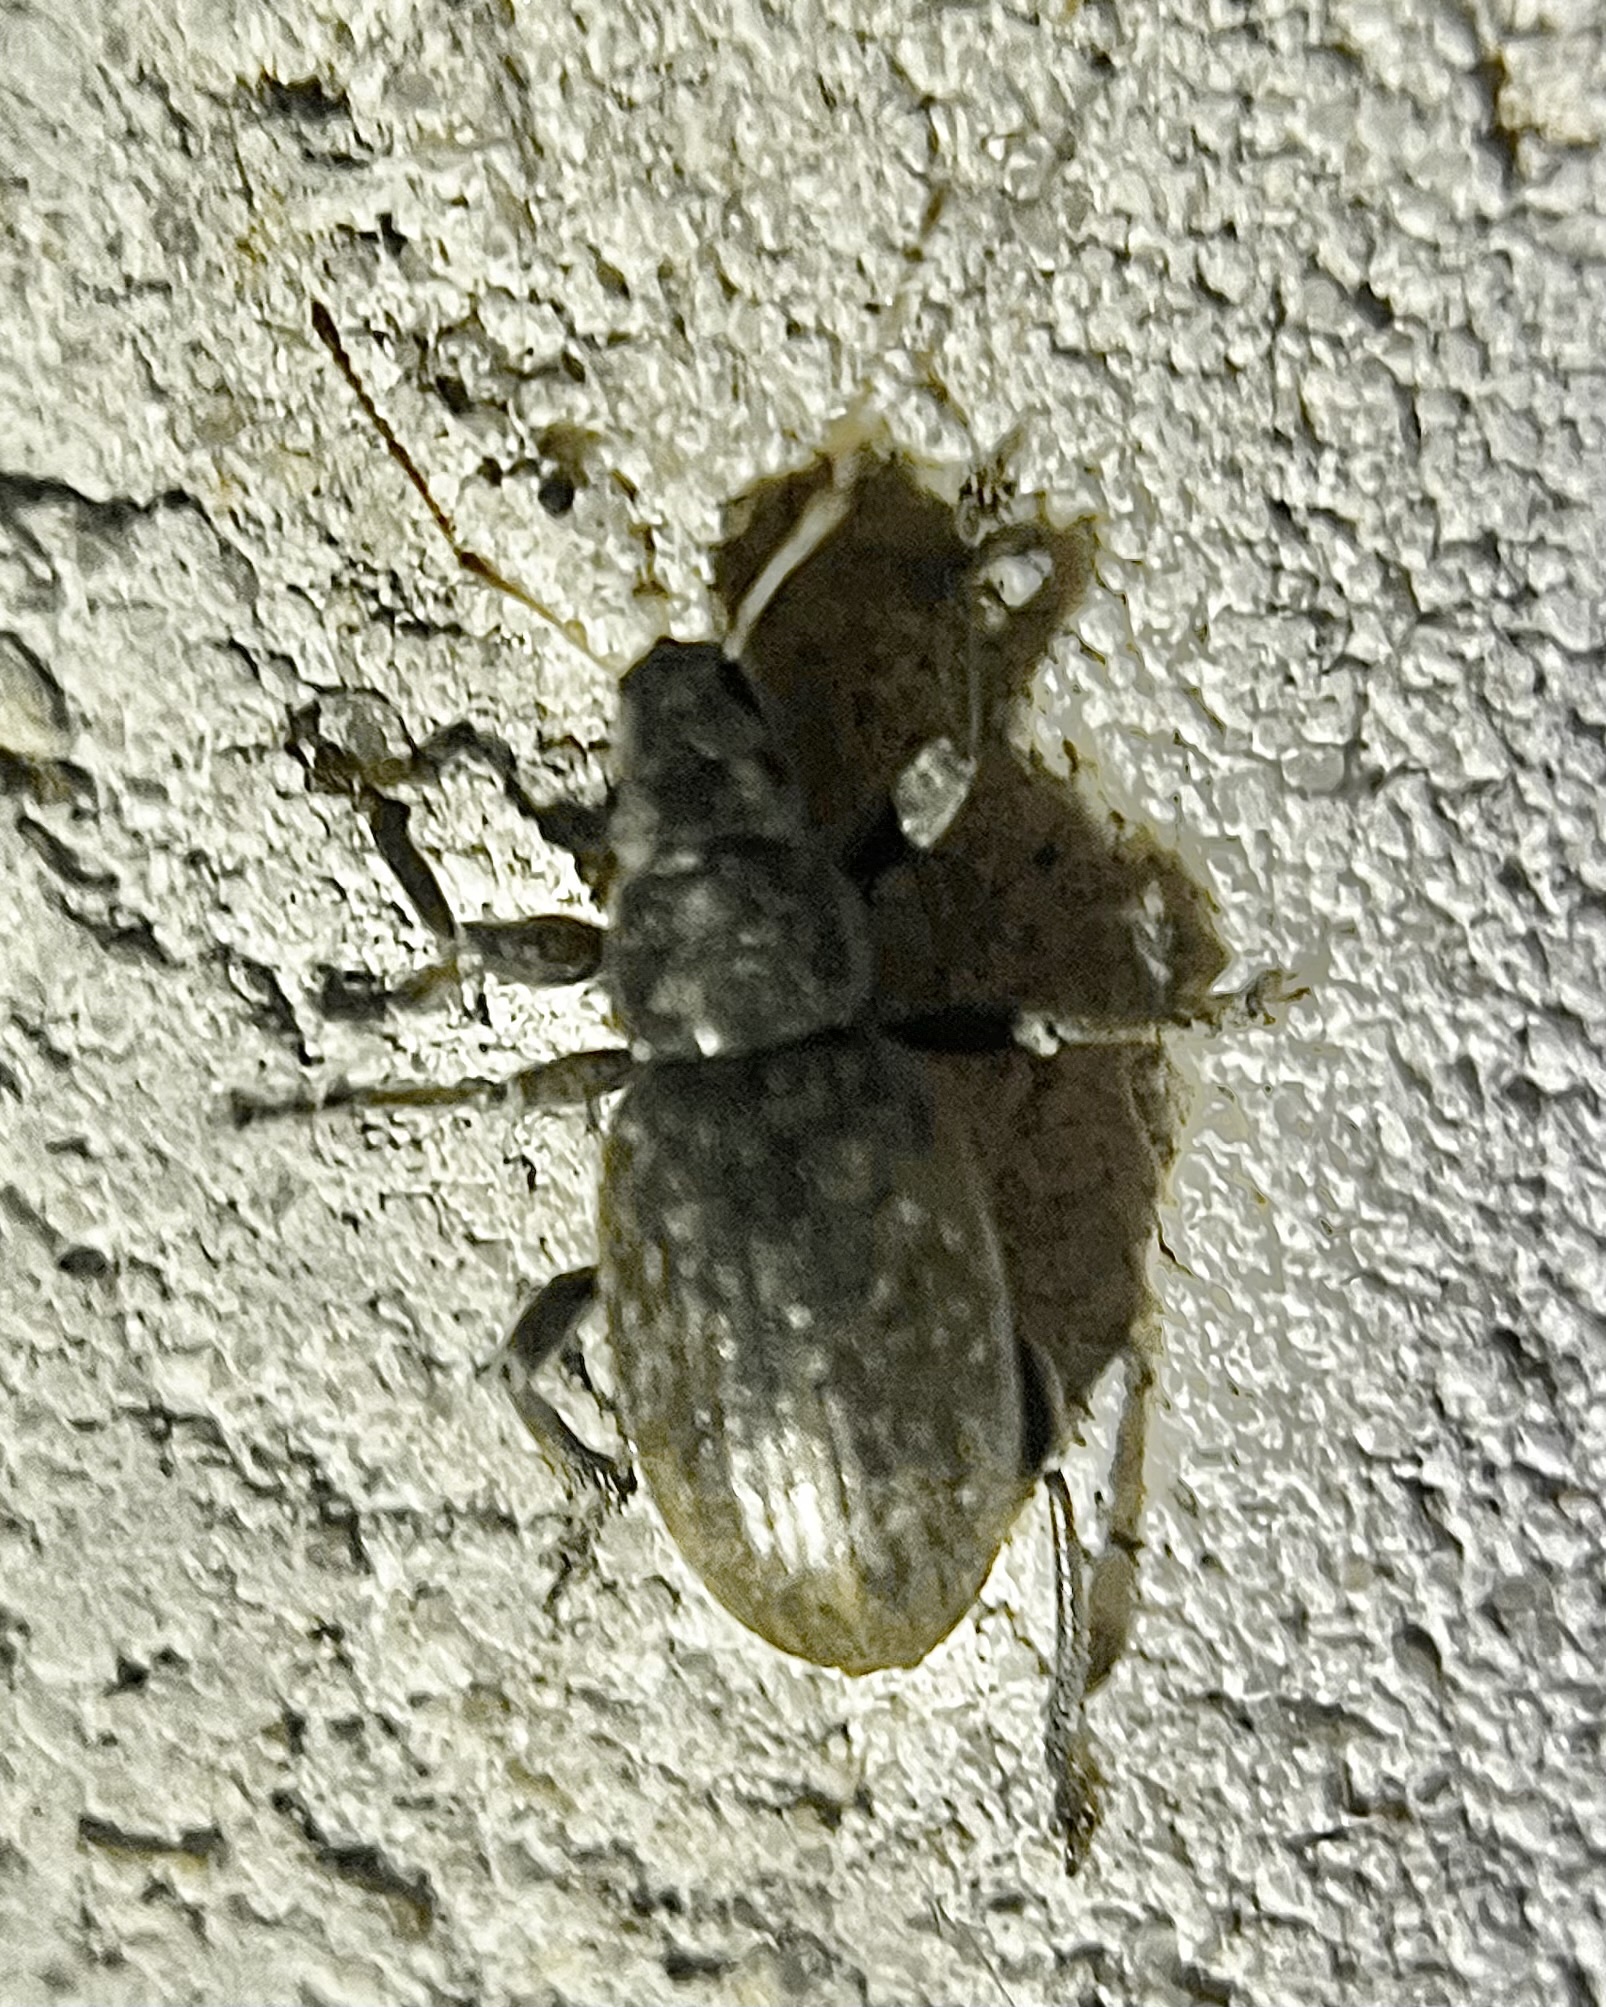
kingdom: Animalia
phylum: Arthropoda
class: Insecta
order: Coleoptera
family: Curculionidae
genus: Brachyderes
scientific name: Brachyderes incanus
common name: Weevil
